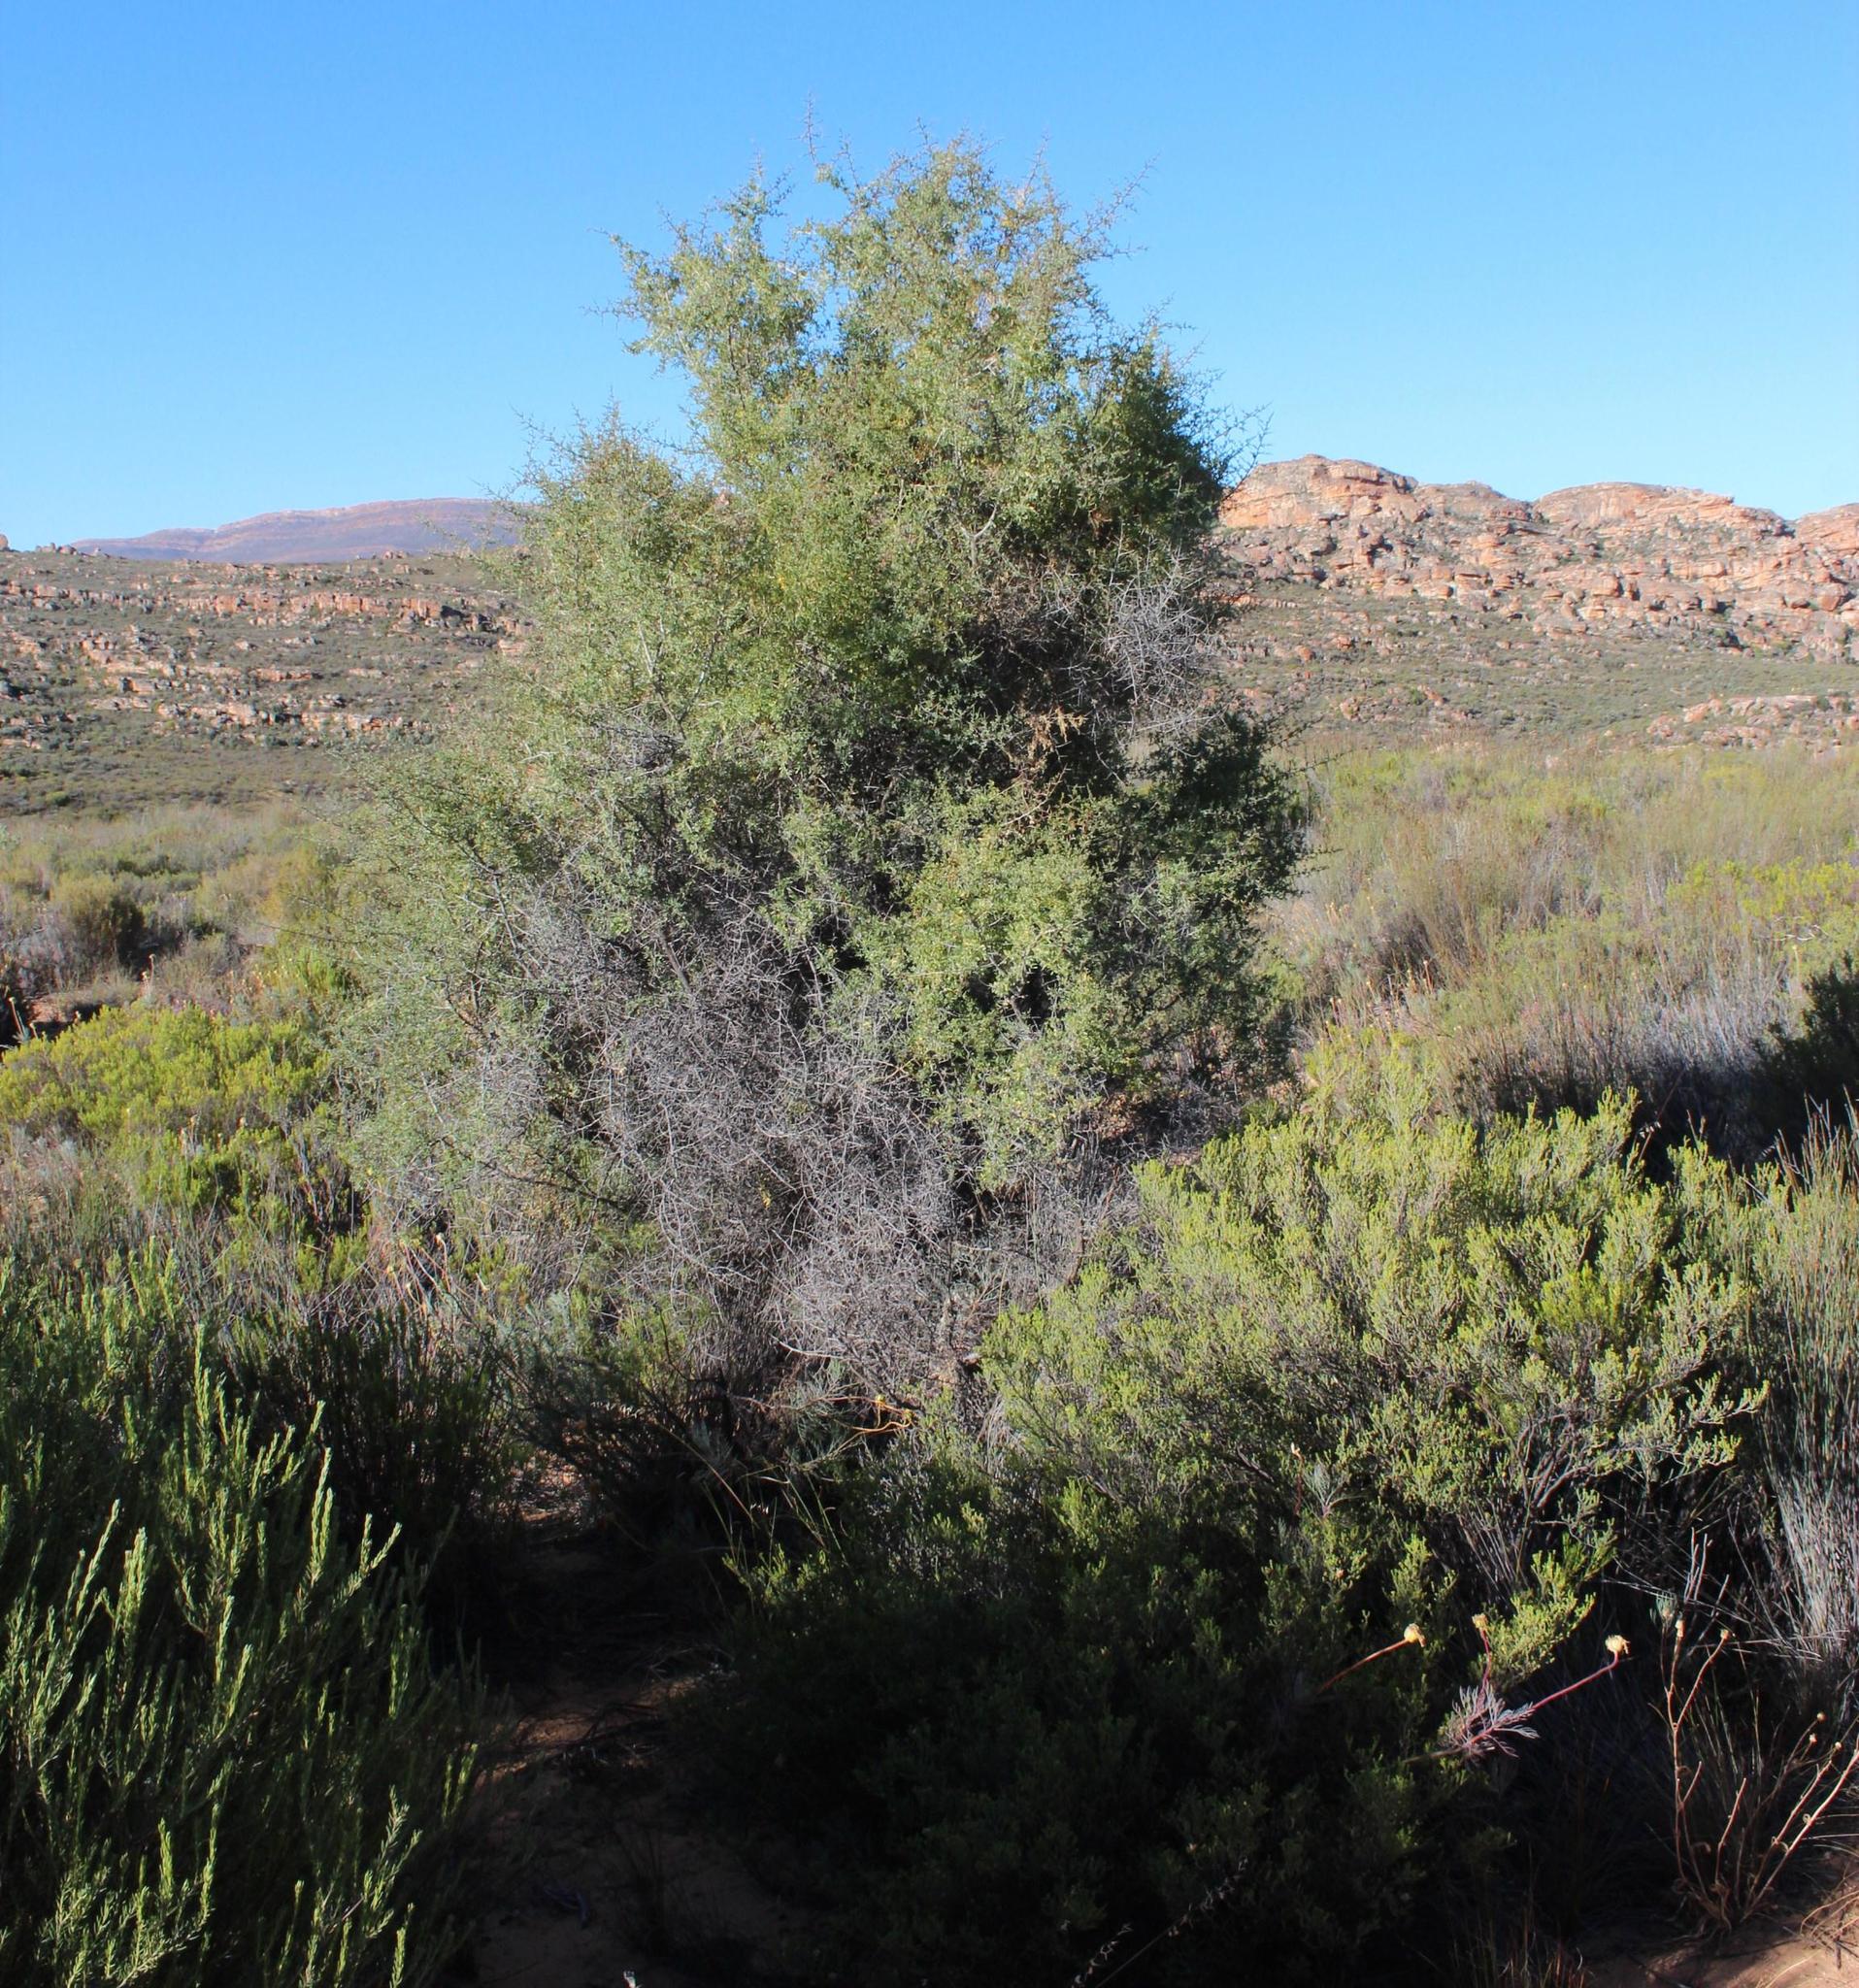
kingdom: Plantae
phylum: Tracheophyta
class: Magnoliopsida
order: Fabales
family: Fabaceae
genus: Wiborgia
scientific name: Wiborgia mucronata
